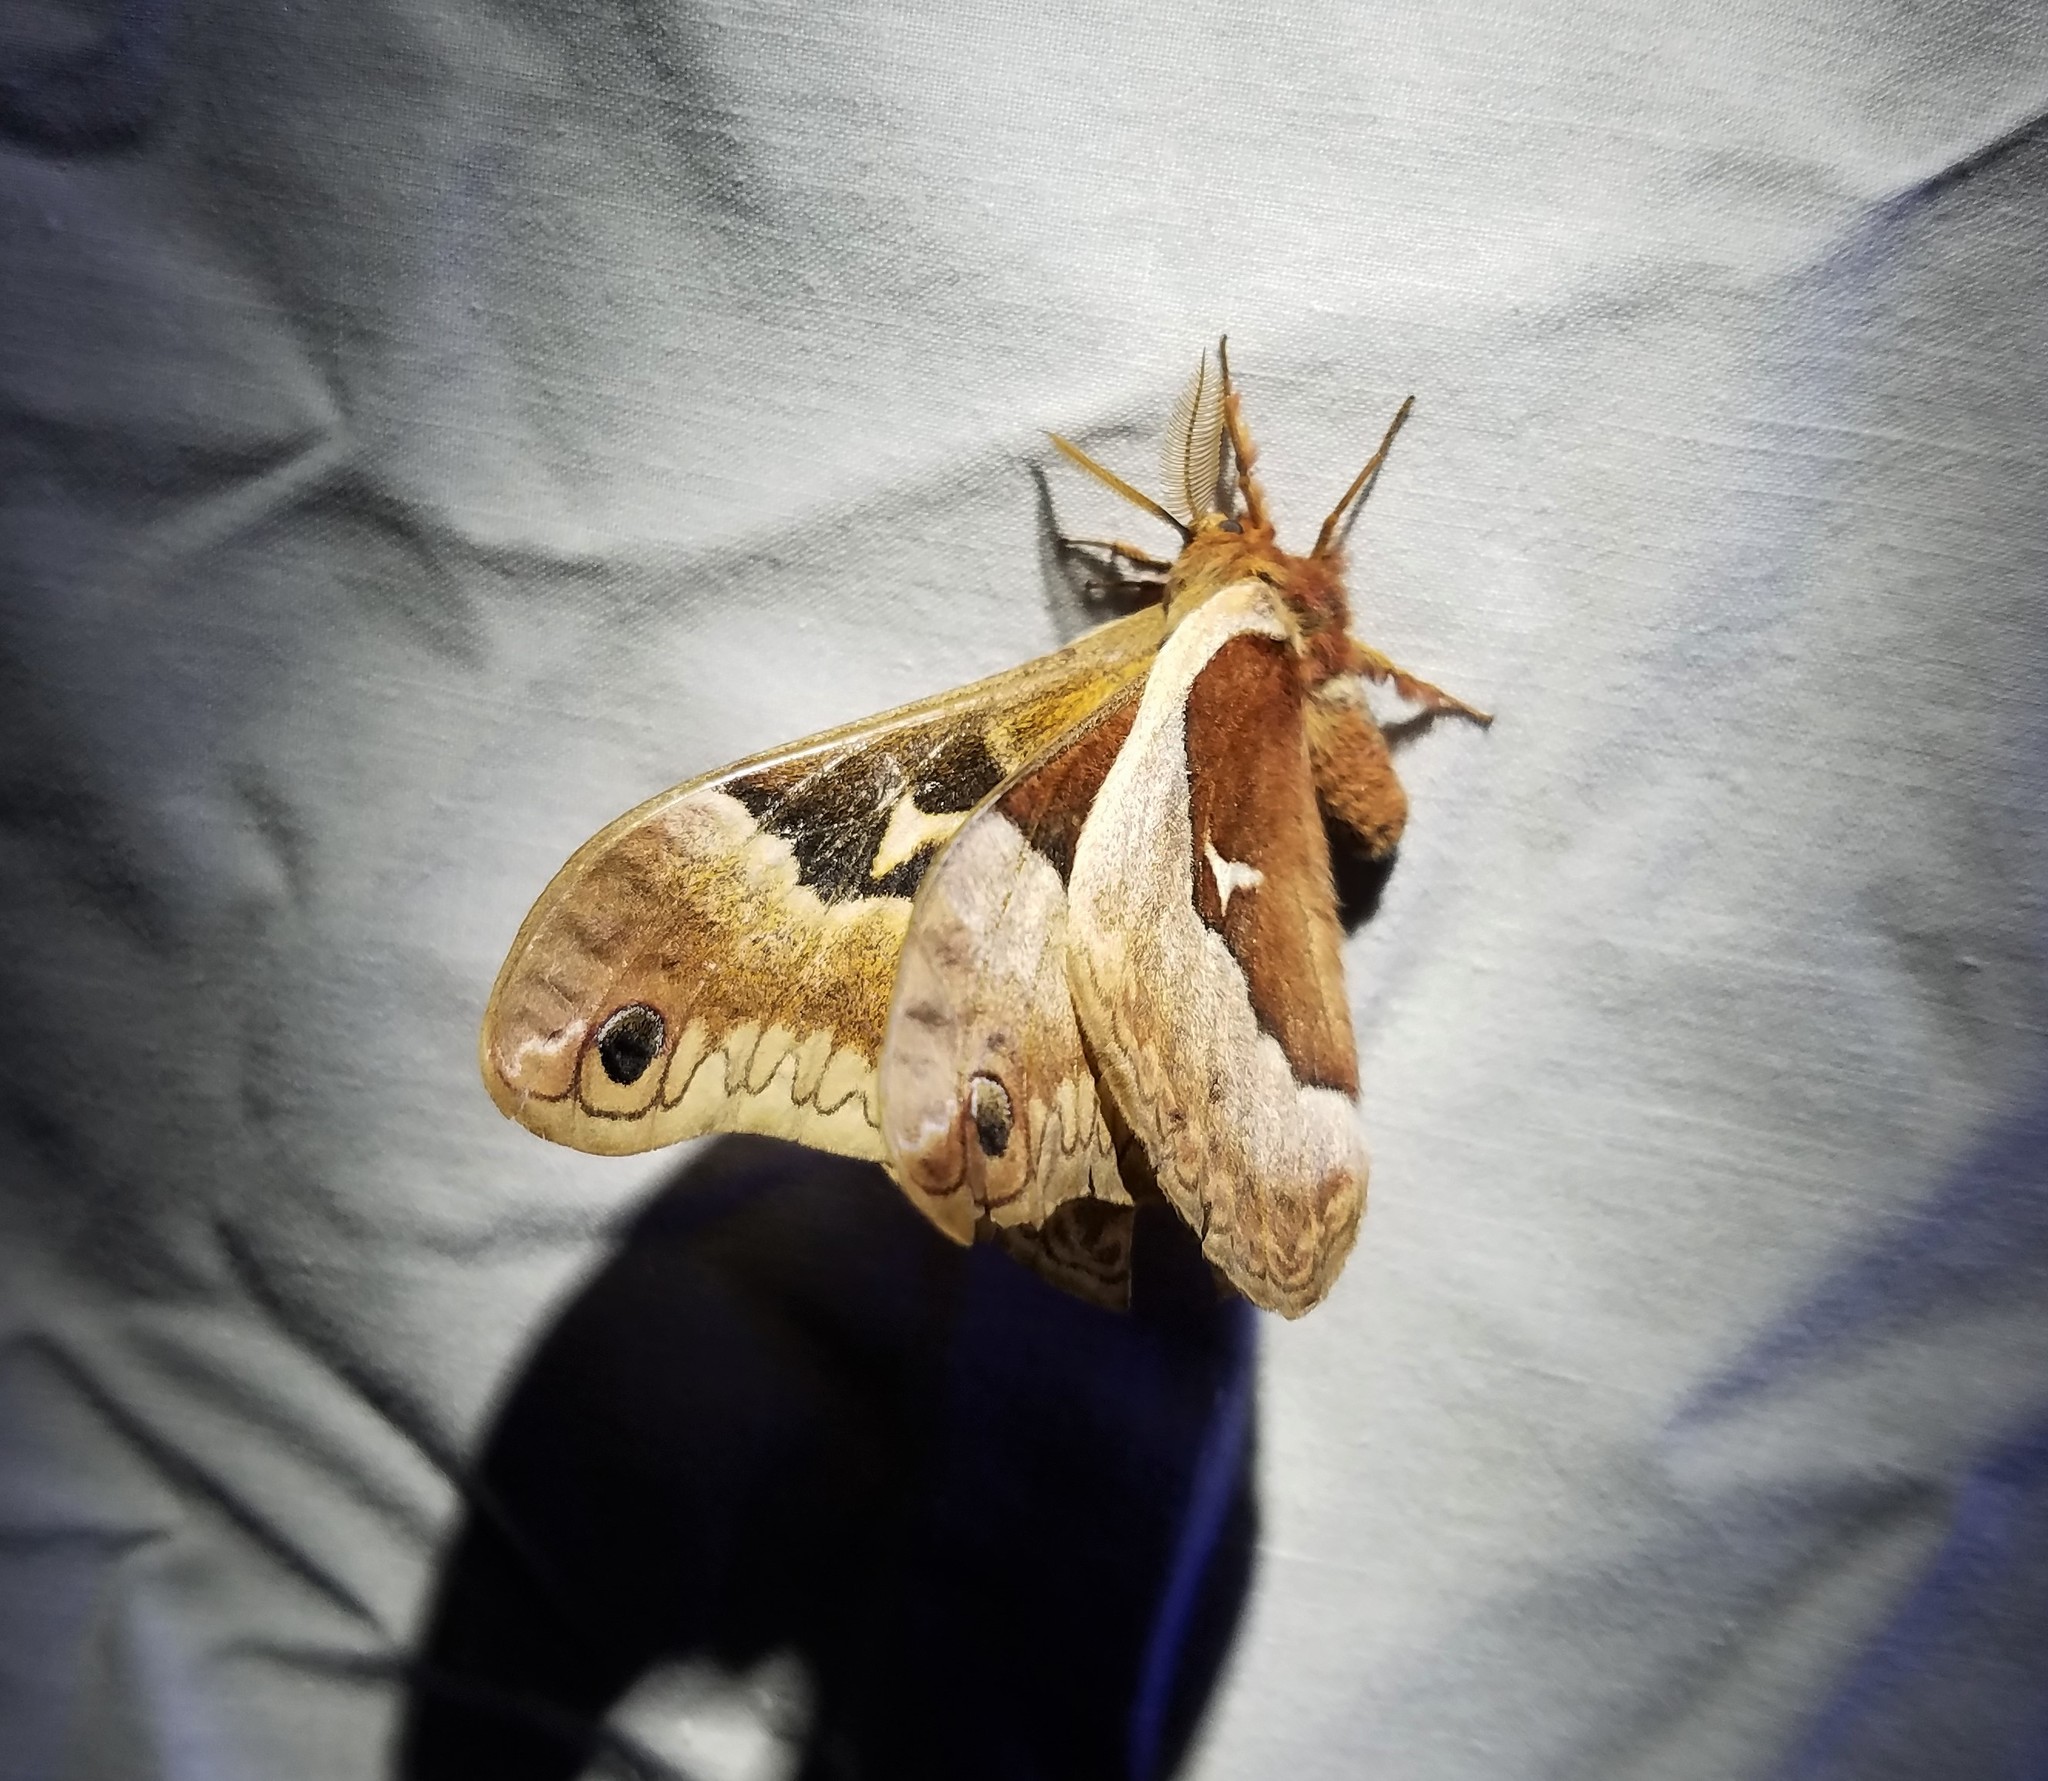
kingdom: Animalia
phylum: Arthropoda
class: Insecta
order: Lepidoptera
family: Saturniidae
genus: Callosamia
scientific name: Callosamia angulifera
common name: Tulip tree silkmoth
